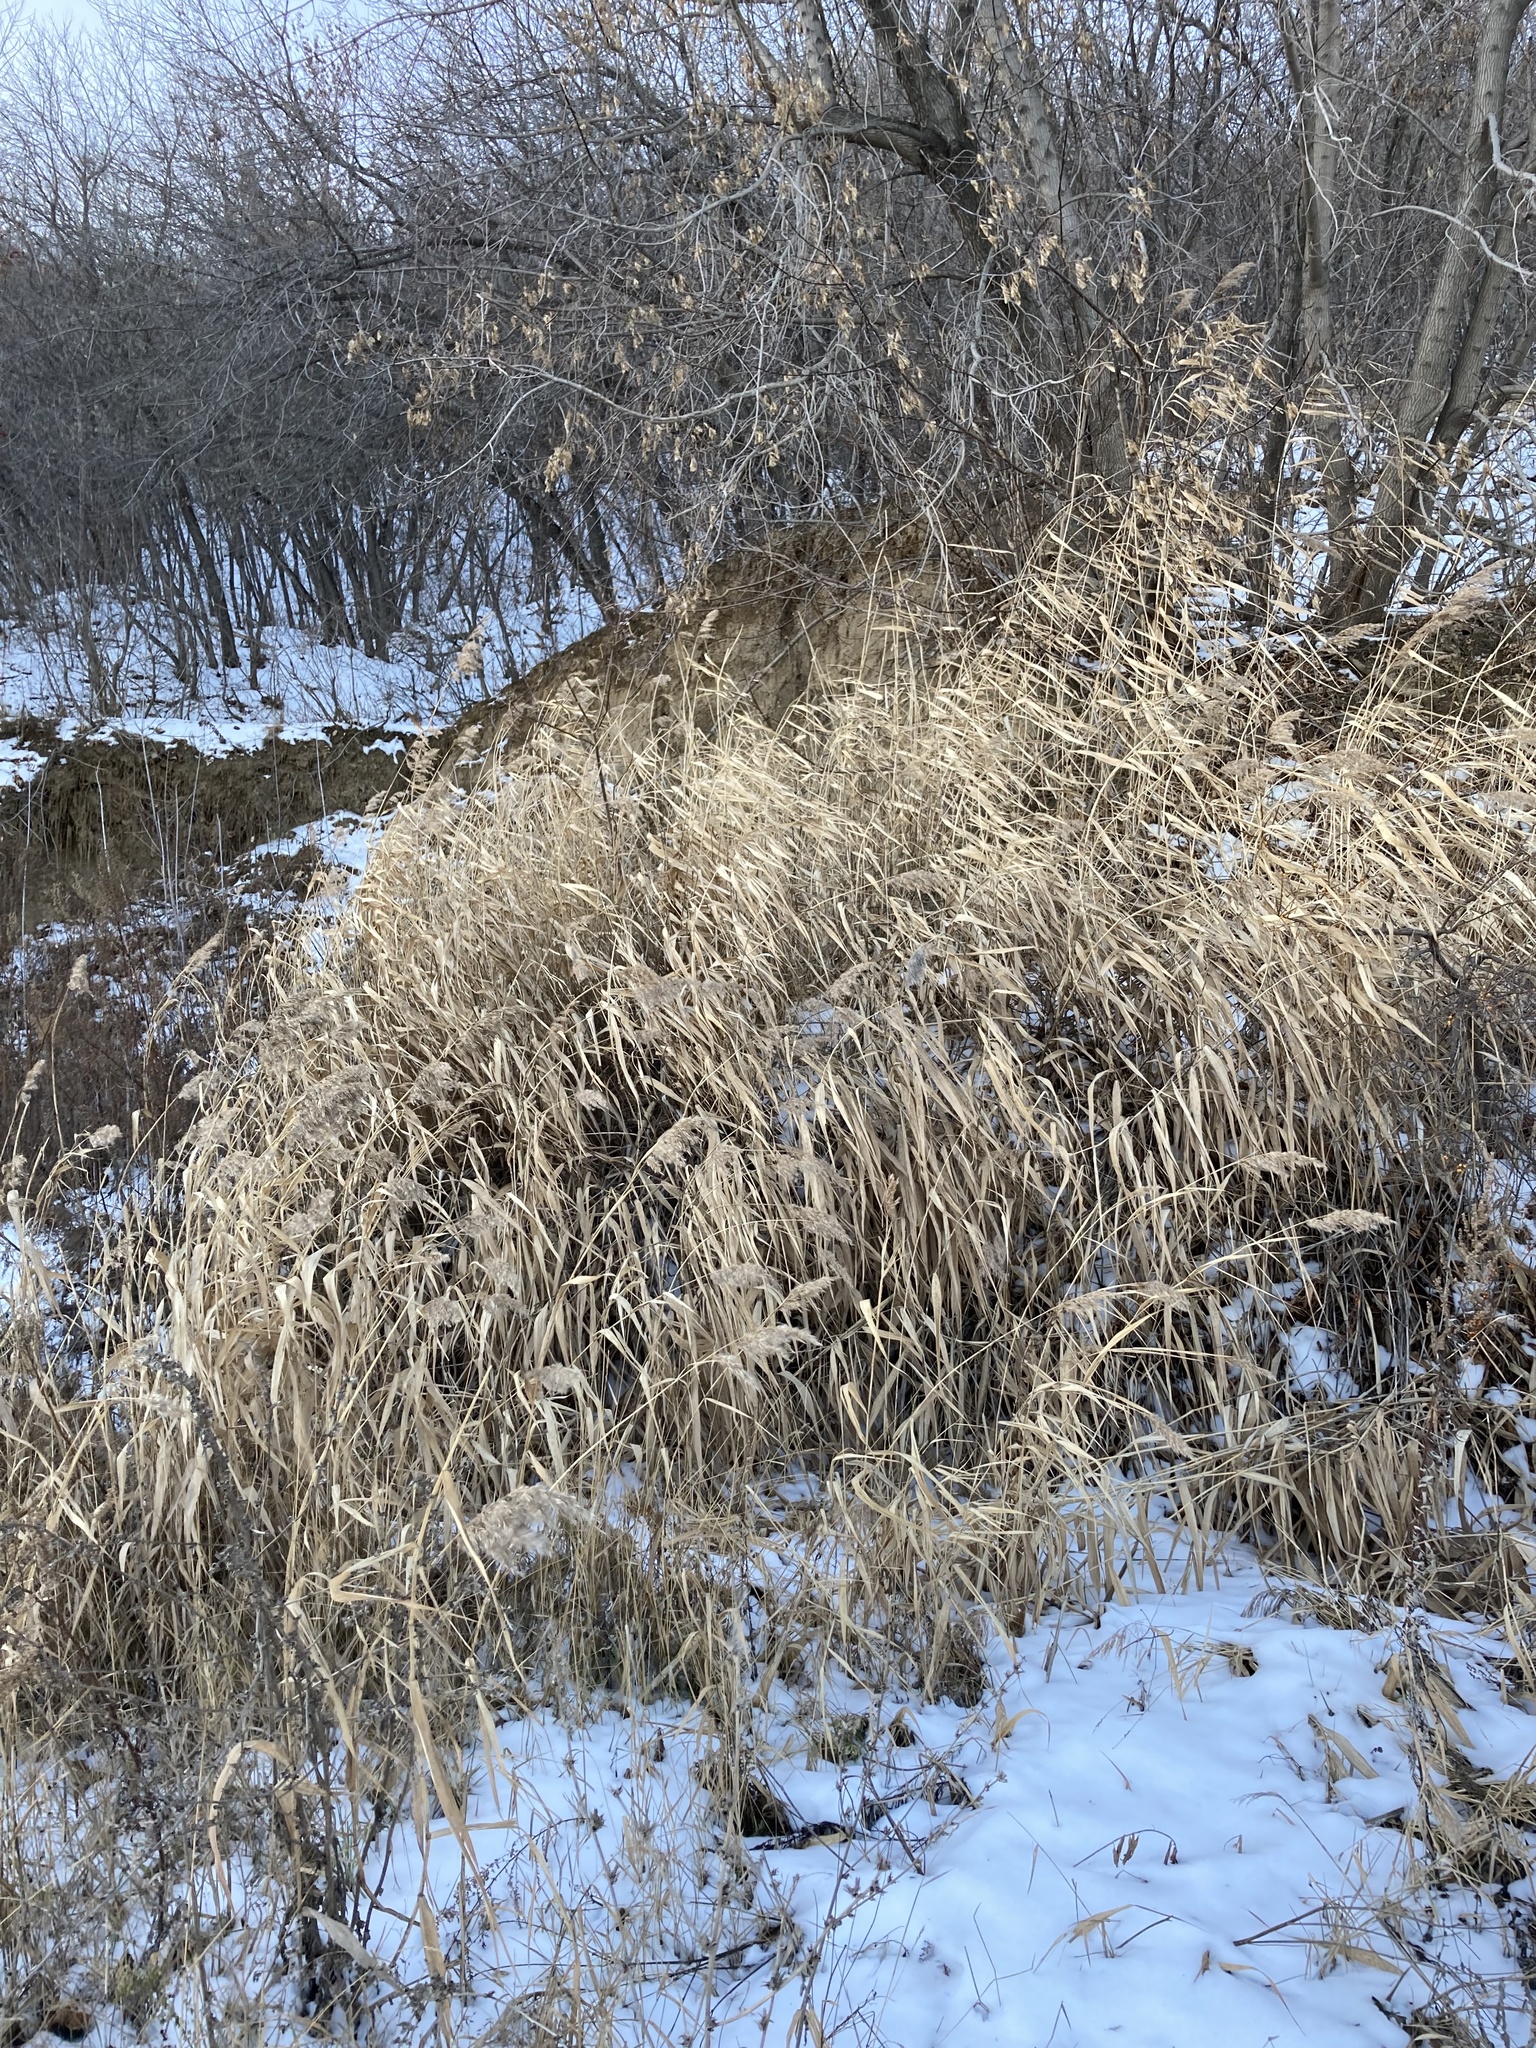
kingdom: Plantae
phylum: Tracheophyta
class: Liliopsida
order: Poales
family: Poaceae
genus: Phragmites
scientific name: Phragmites australis
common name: Common reed
